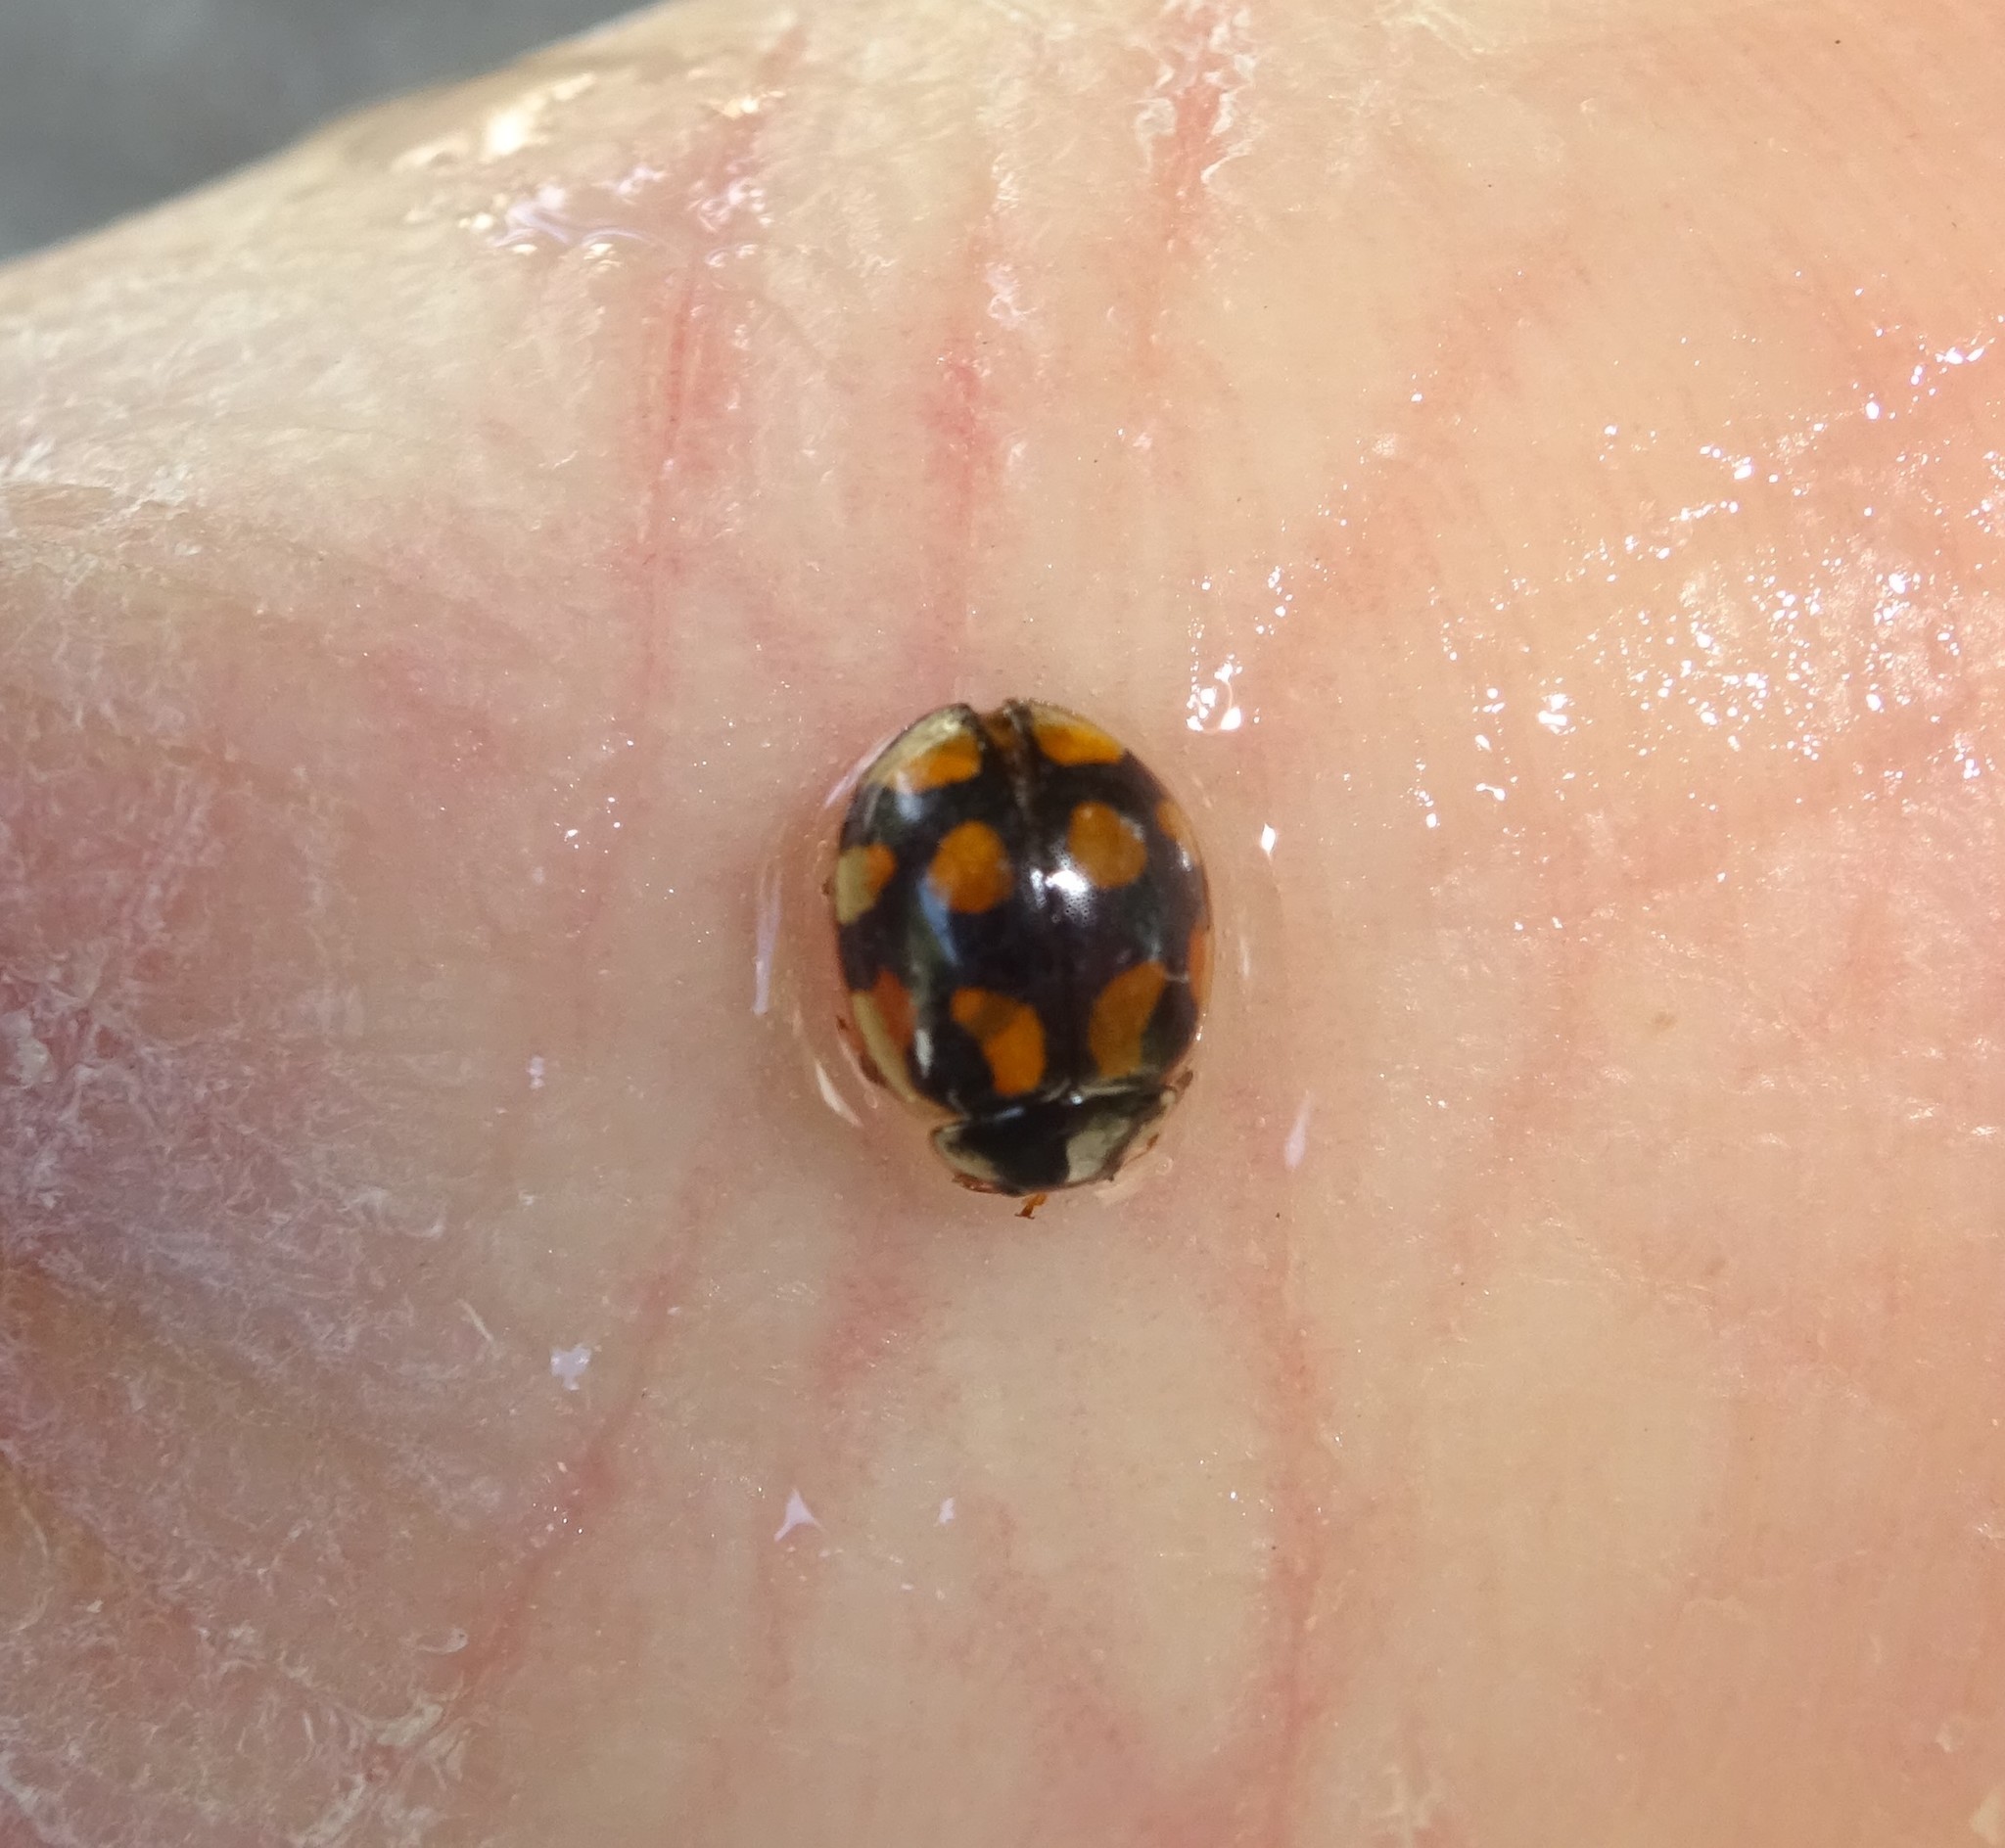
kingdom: Animalia
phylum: Arthropoda
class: Insecta
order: Coleoptera
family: Coccinellidae
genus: Adalia
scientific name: Adalia decempunctata
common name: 10-spot ladybird
